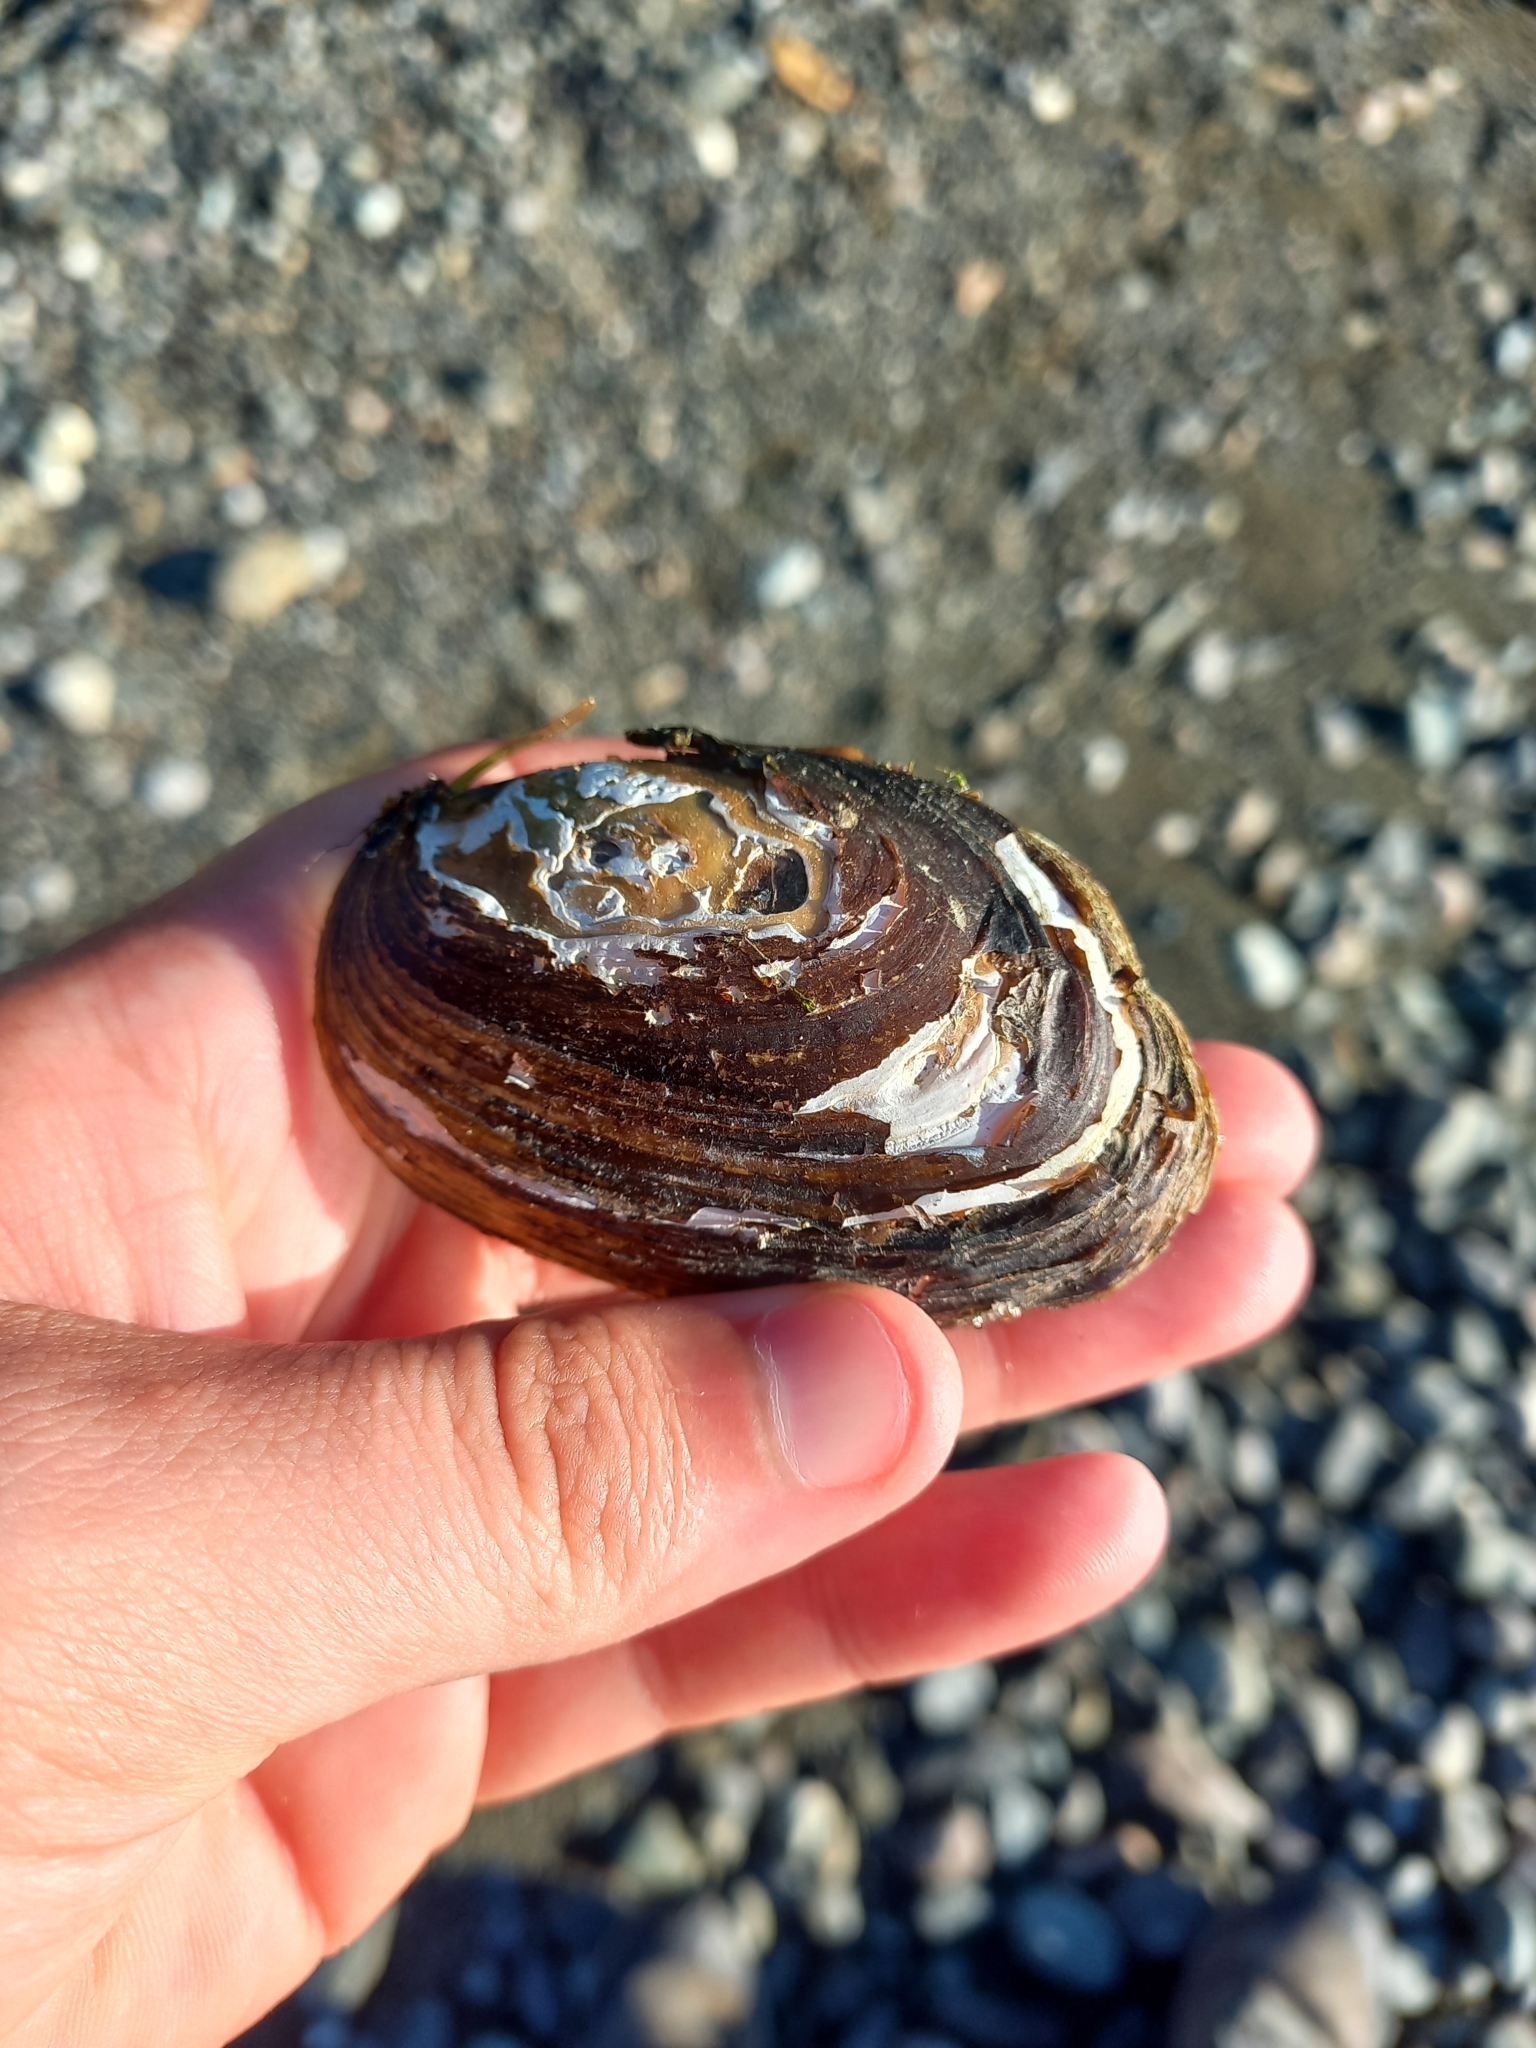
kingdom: Animalia
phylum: Mollusca
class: Bivalvia
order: Unionida
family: Hyriidae
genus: Echyridella
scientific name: Echyridella menziesii
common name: New zealand freshwater mussel
